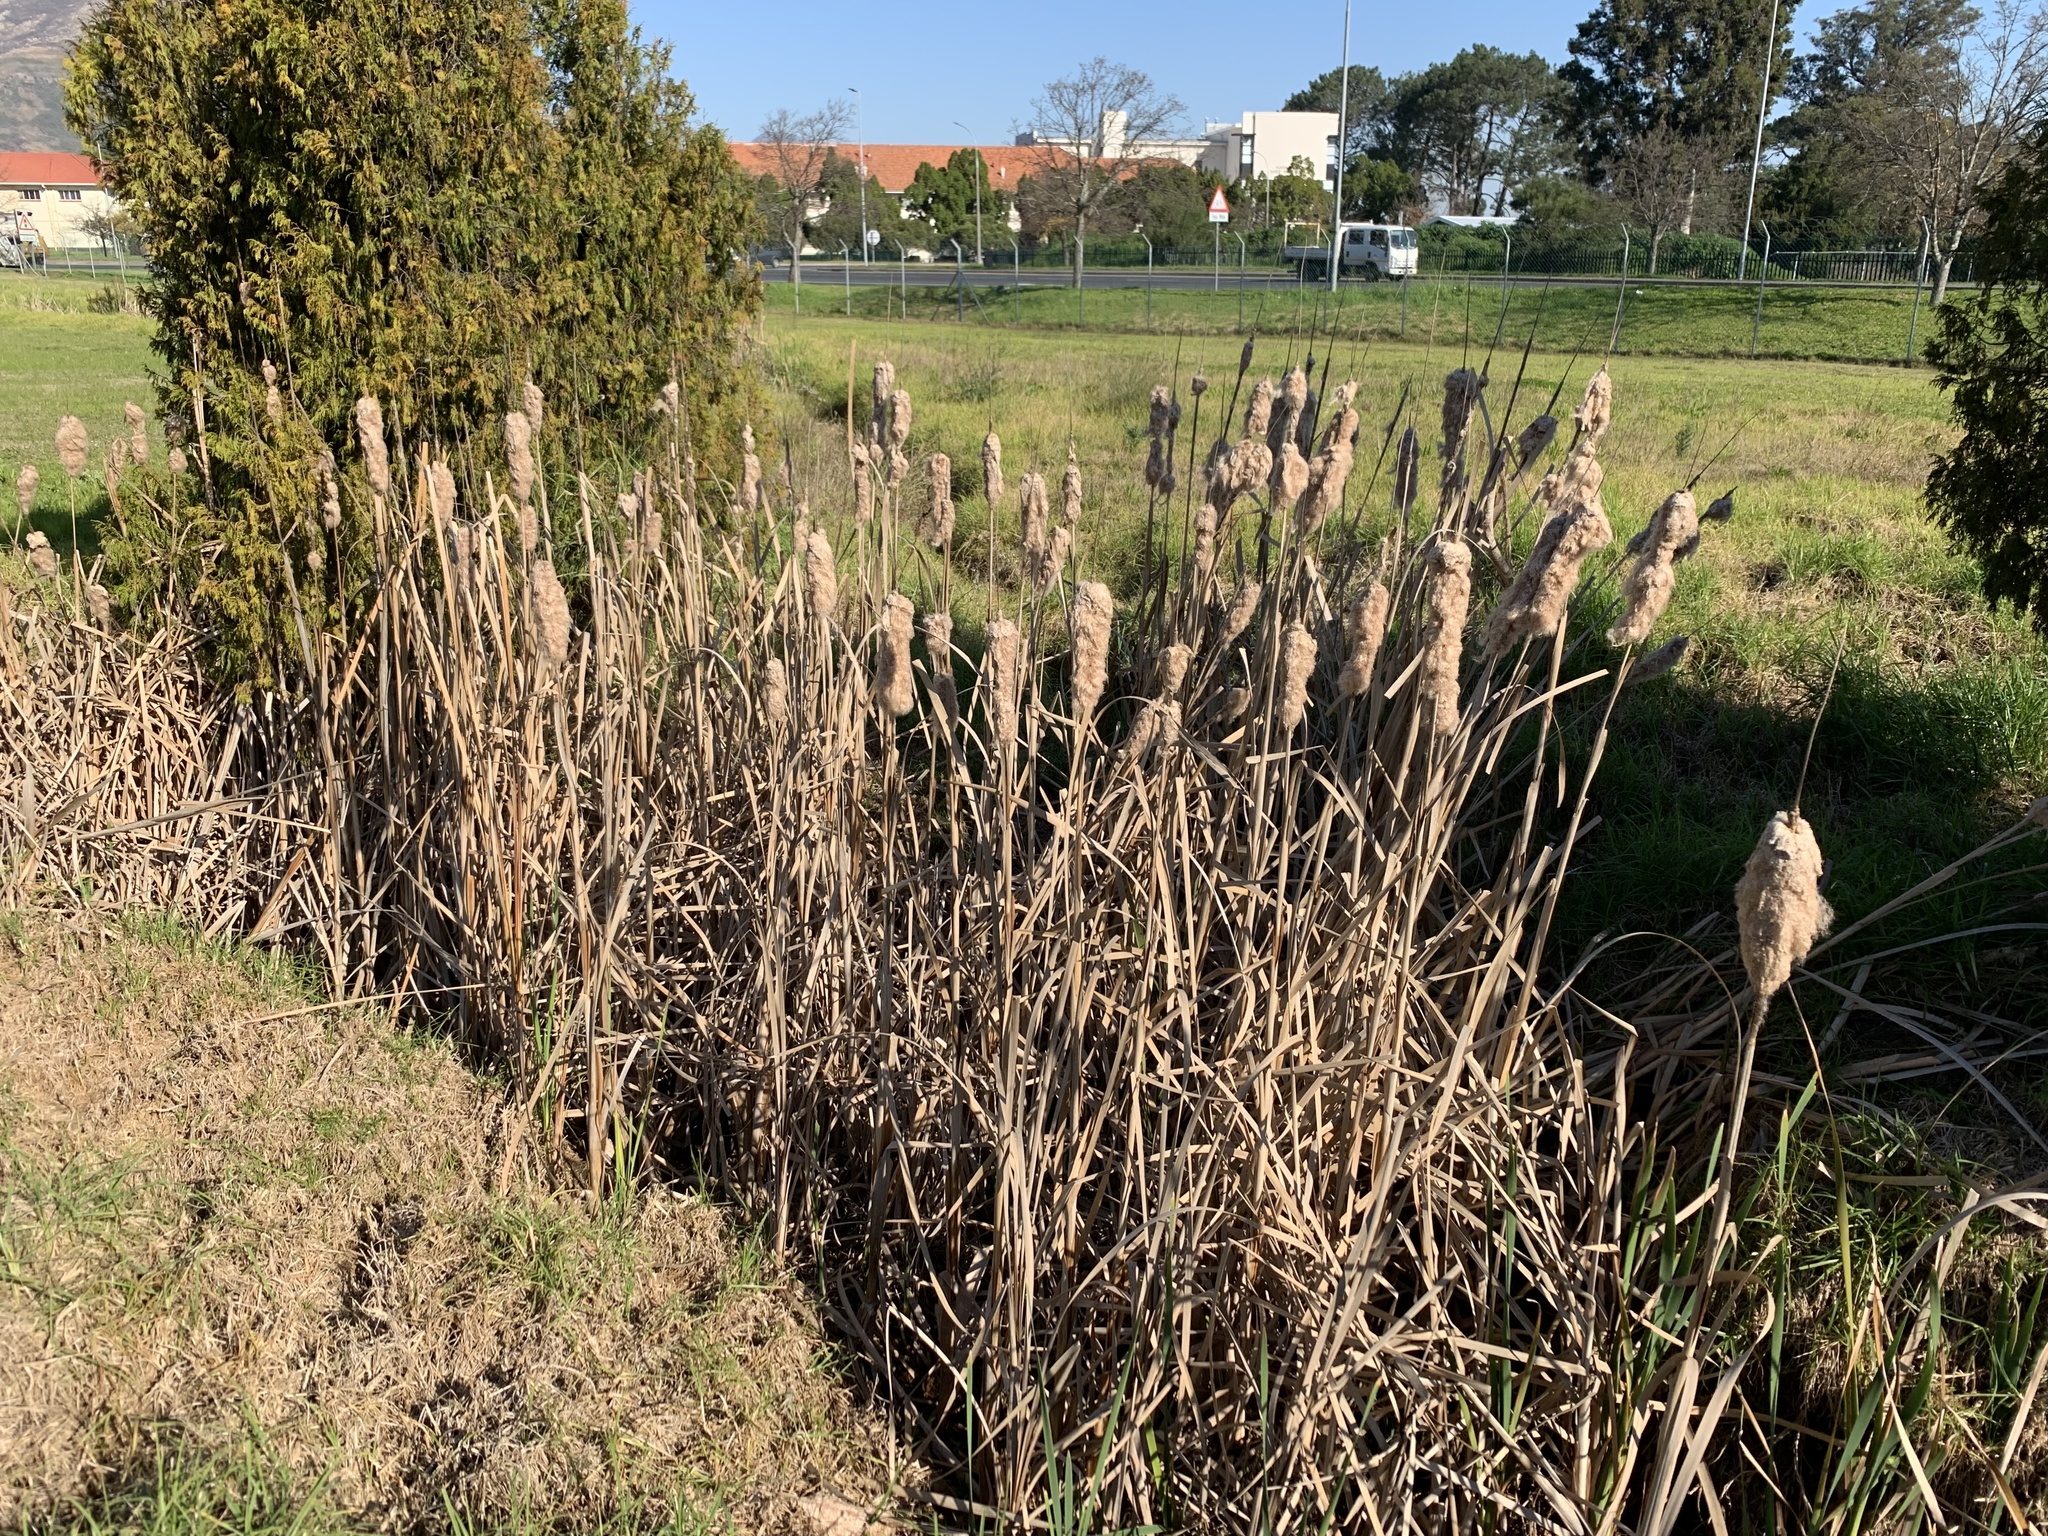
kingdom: Plantae
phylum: Tracheophyta
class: Liliopsida
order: Poales
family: Typhaceae
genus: Typha
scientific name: Typha capensis
